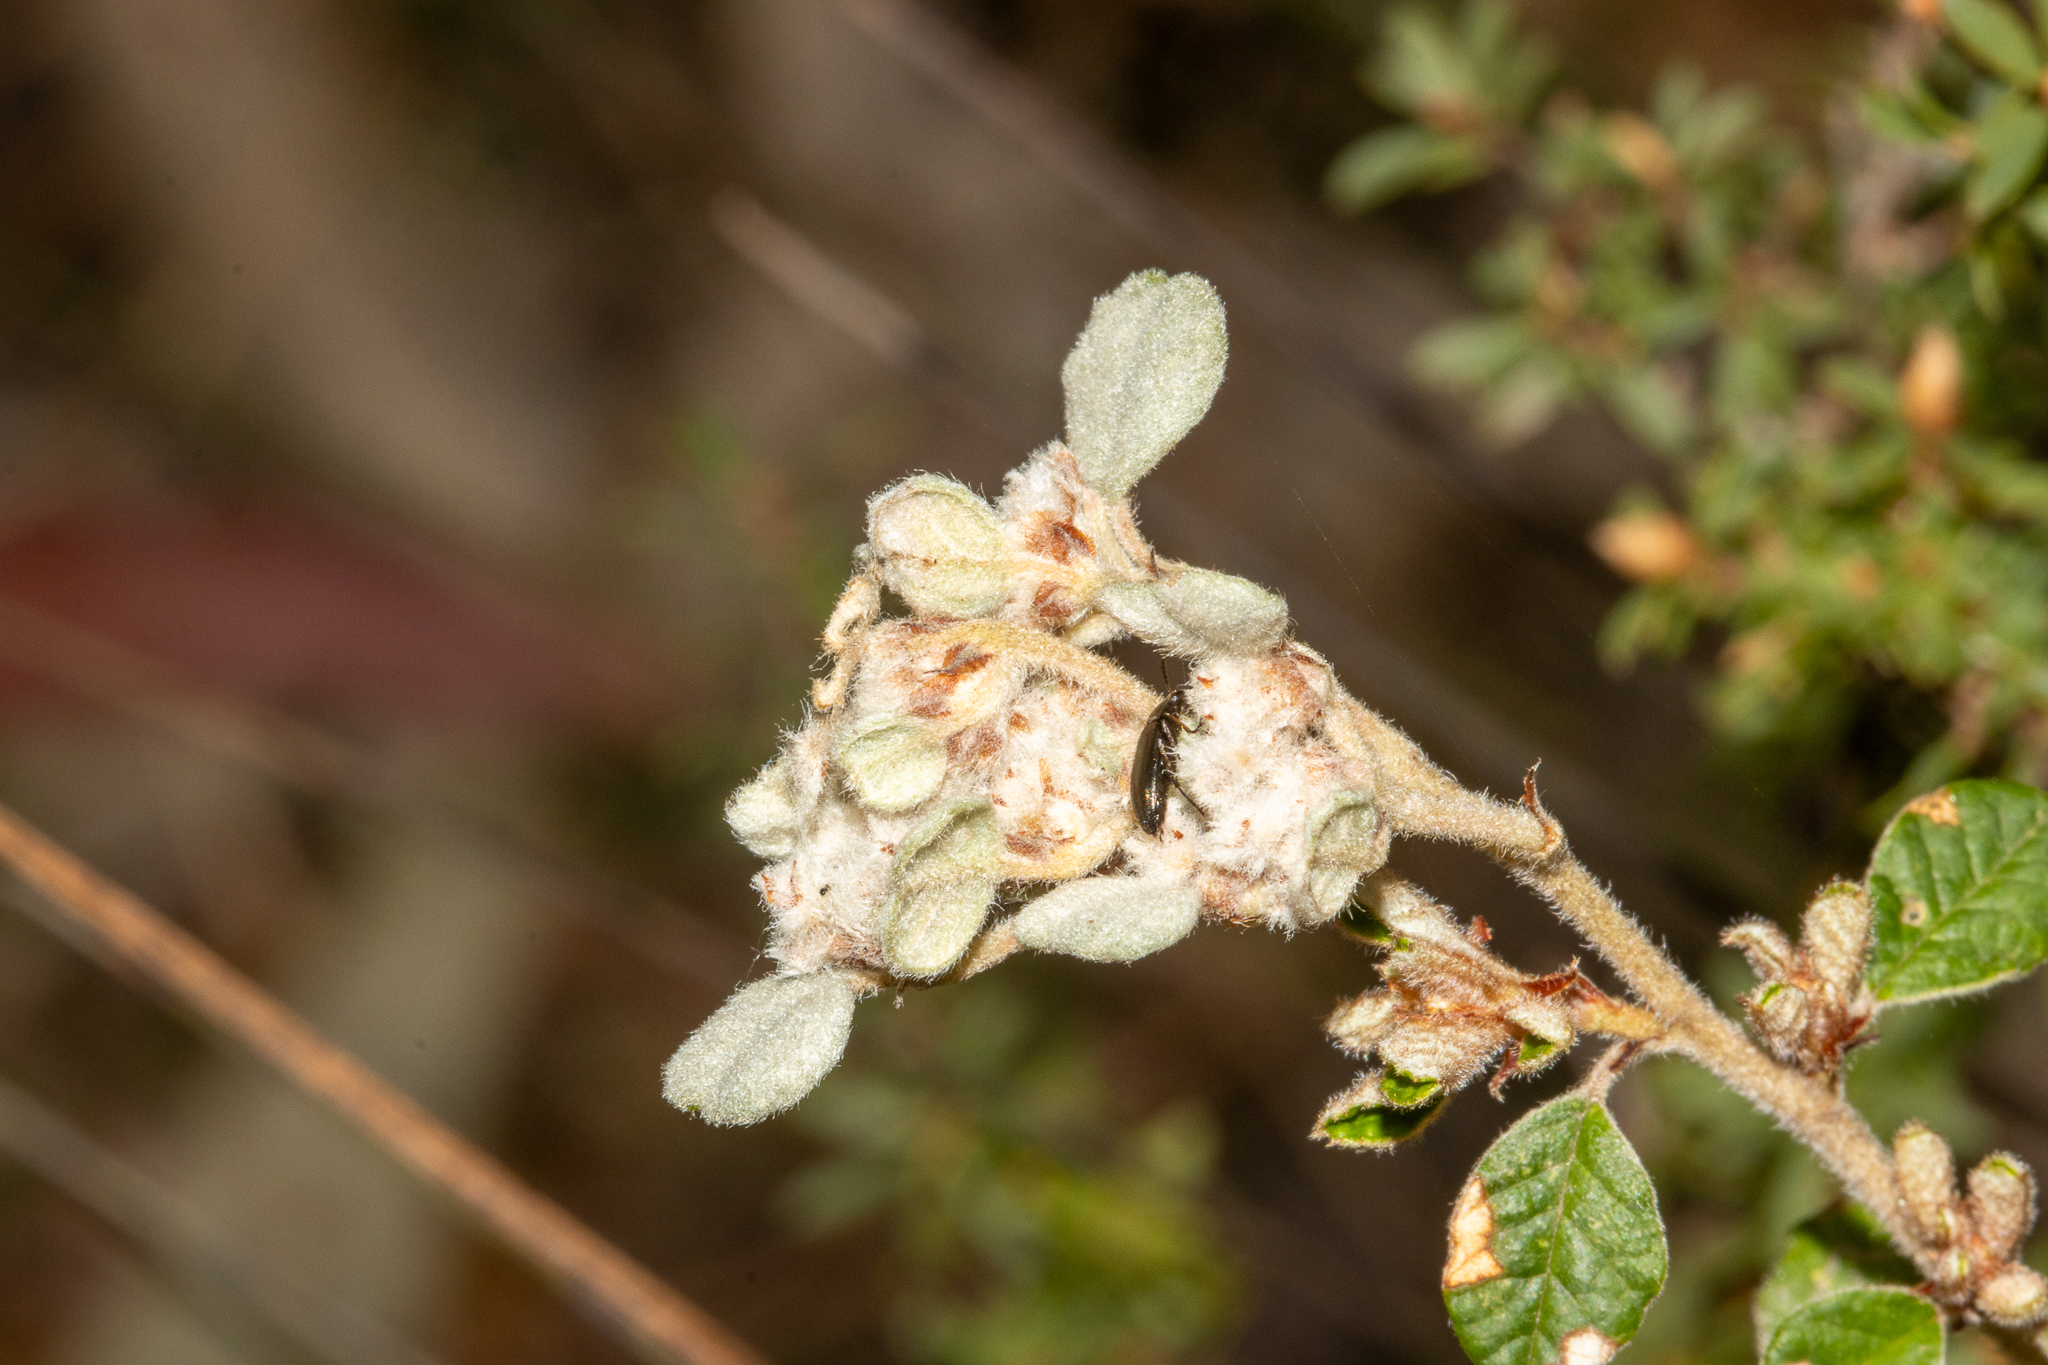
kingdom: Plantae
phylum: Tracheophyta
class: Magnoliopsida
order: Rosales
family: Rhamnaceae
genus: Spyridium
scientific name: Spyridium parvifolium
